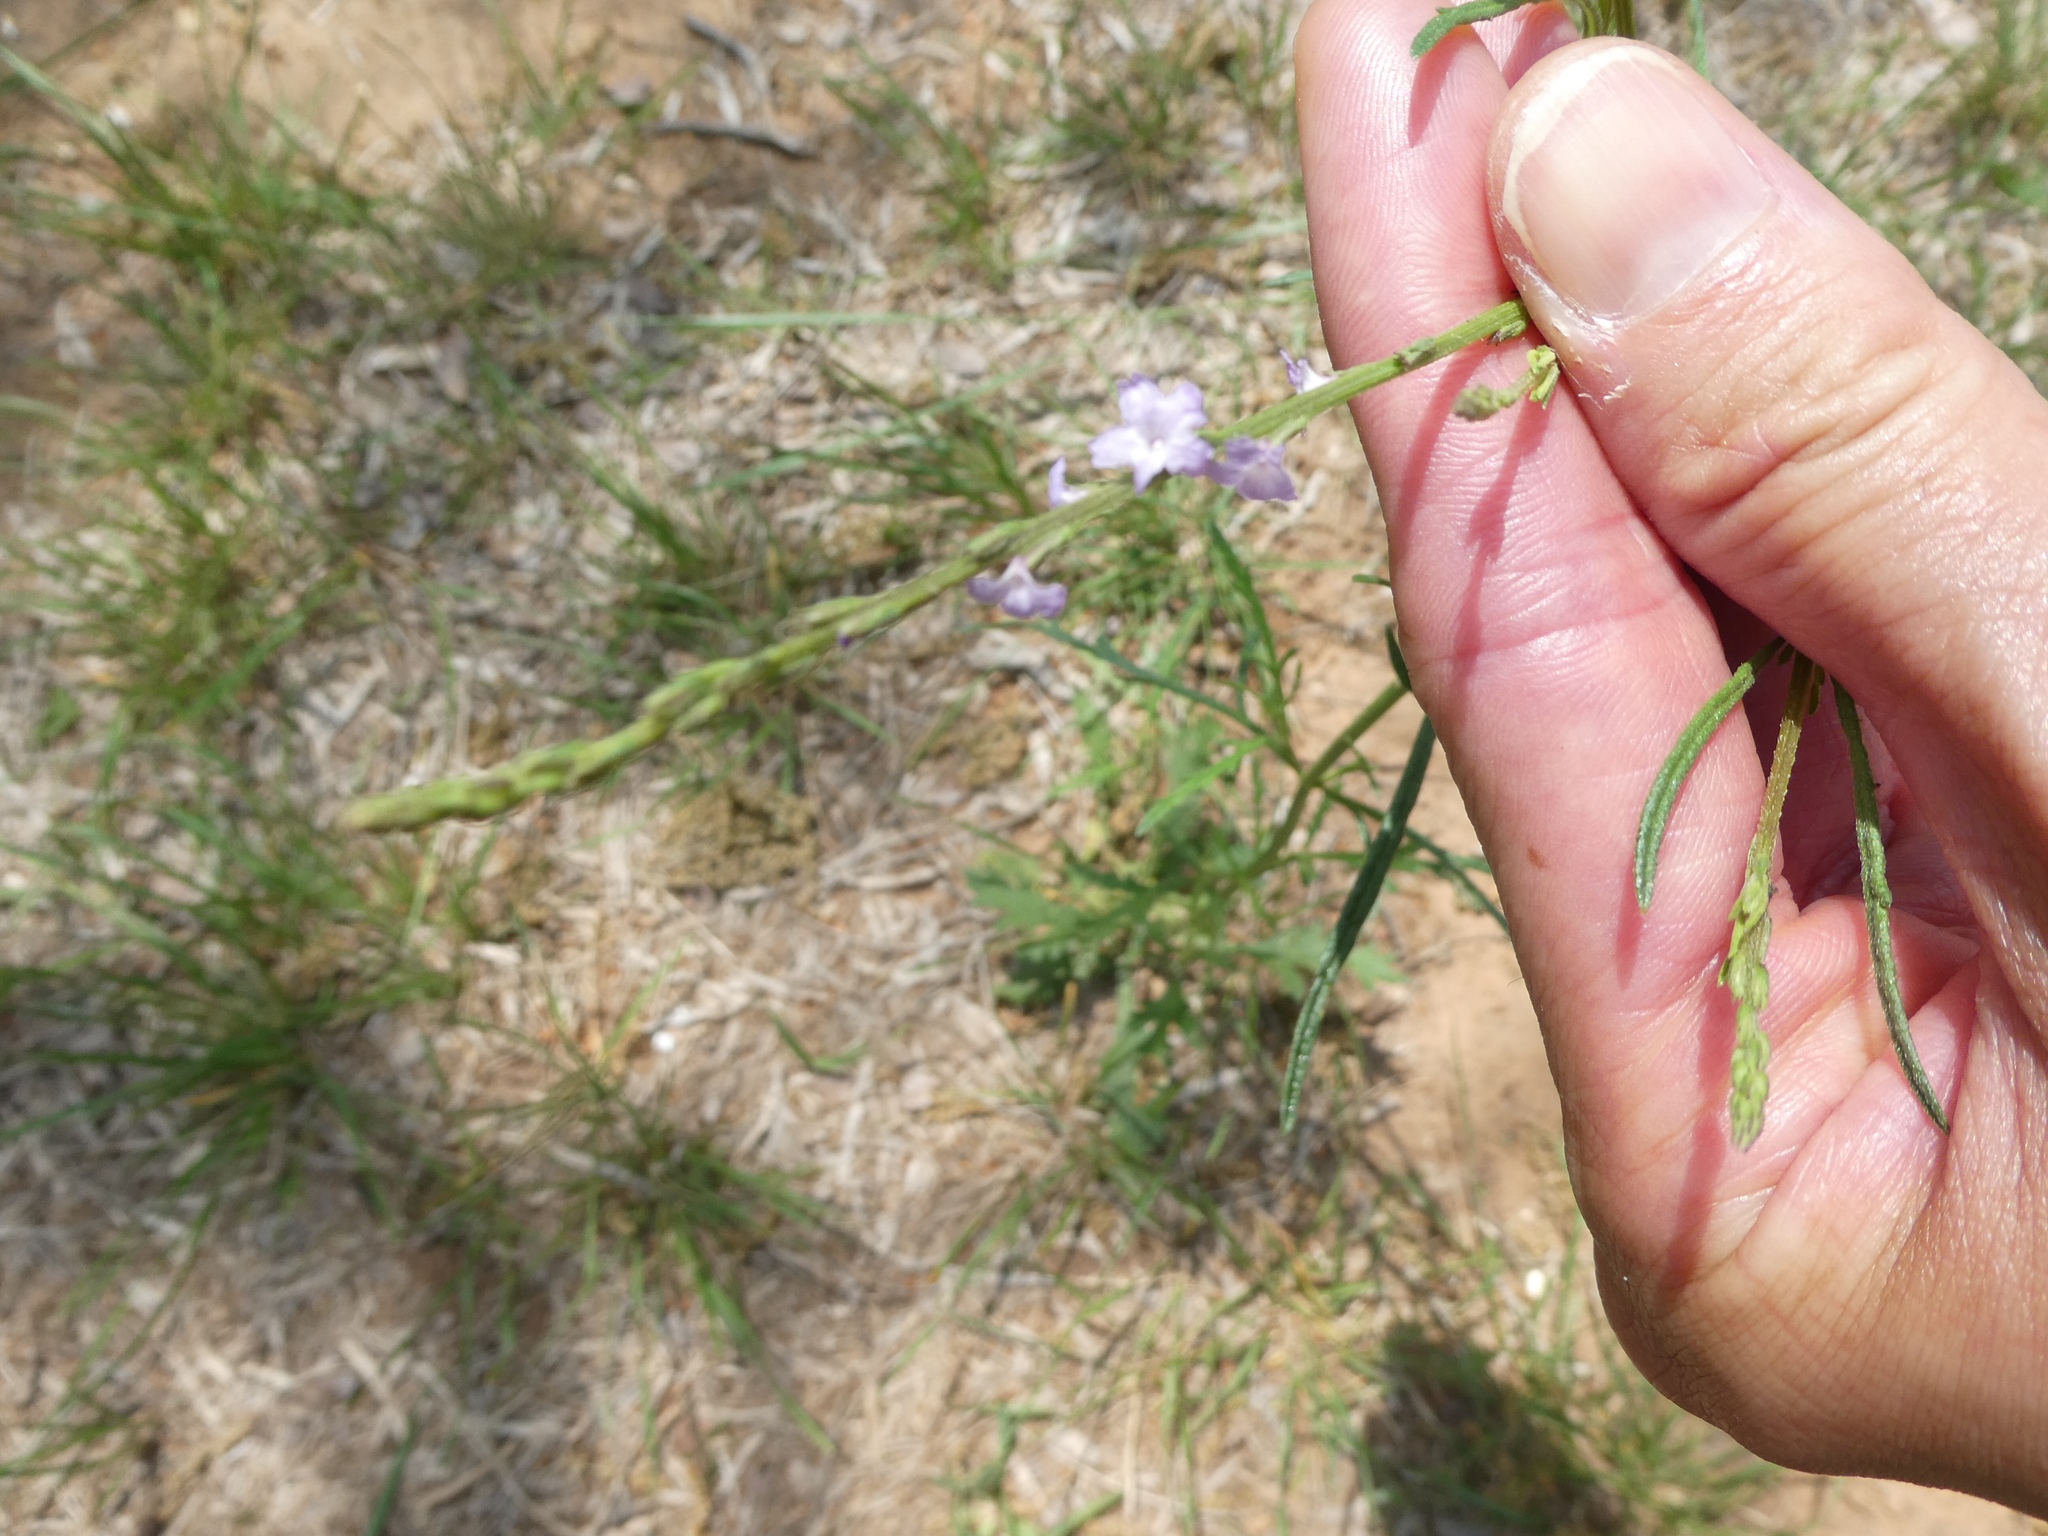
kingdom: Plantae
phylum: Tracheophyta
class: Magnoliopsida
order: Lamiales
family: Verbenaceae
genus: Verbena
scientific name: Verbena halei
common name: Texas vervain
